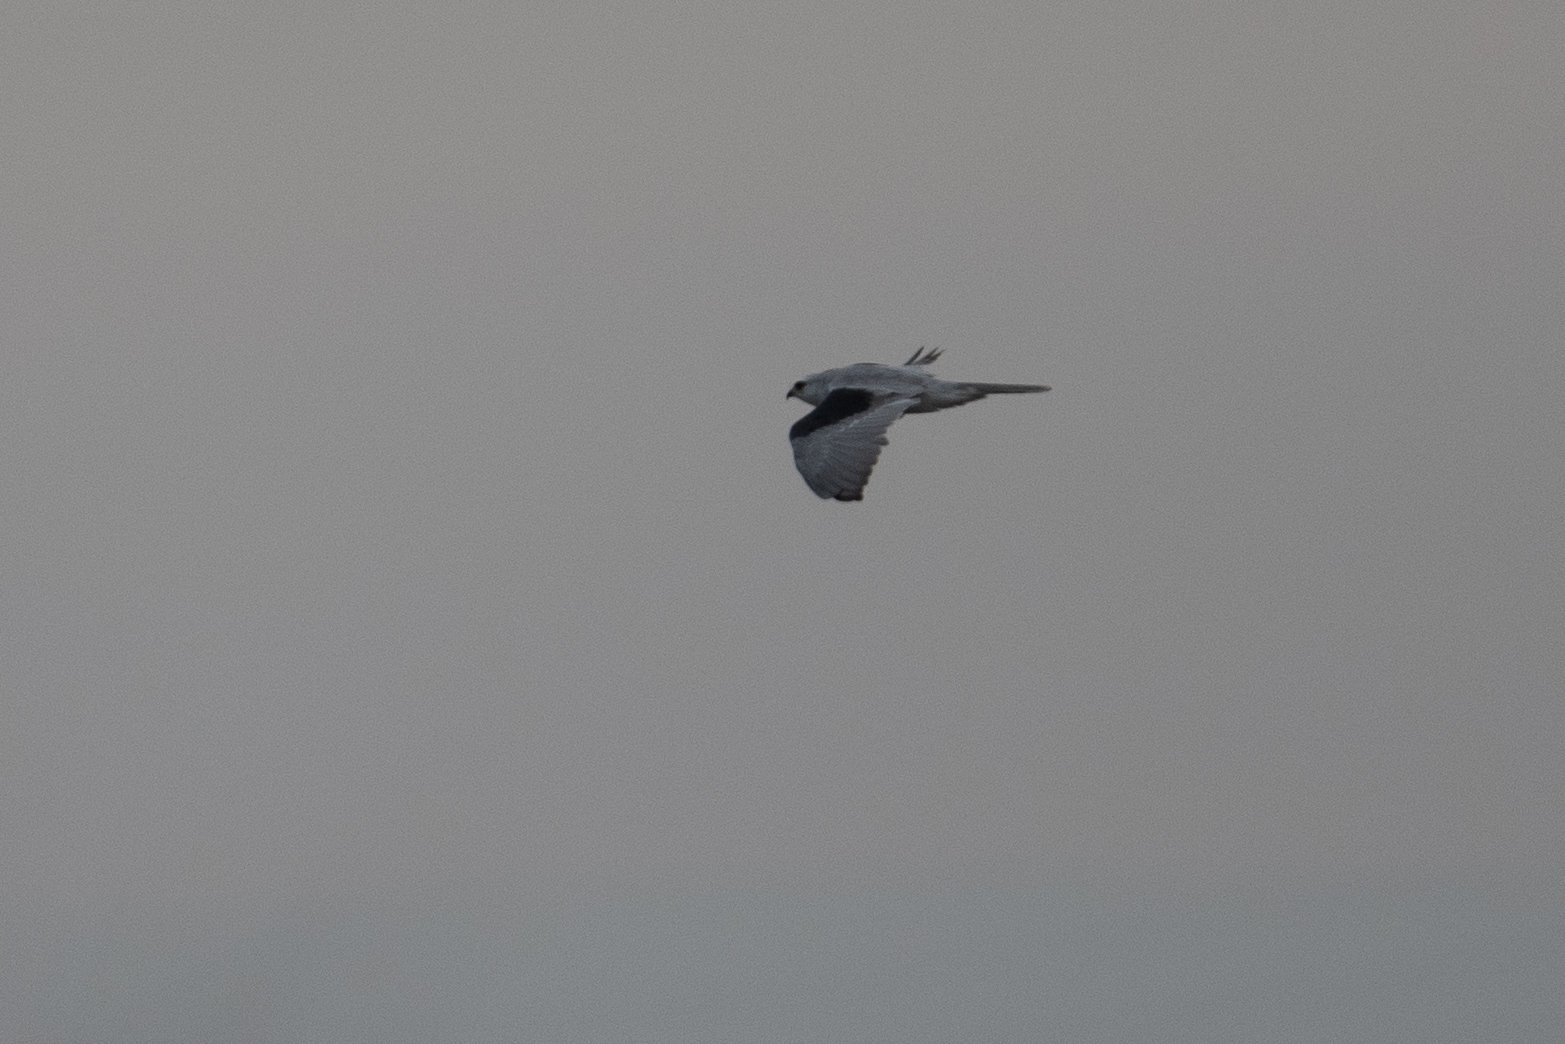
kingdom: Animalia
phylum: Chordata
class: Aves
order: Accipitriformes
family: Accipitridae
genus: Elanus
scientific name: Elanus leucurus
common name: White-tailed kite
